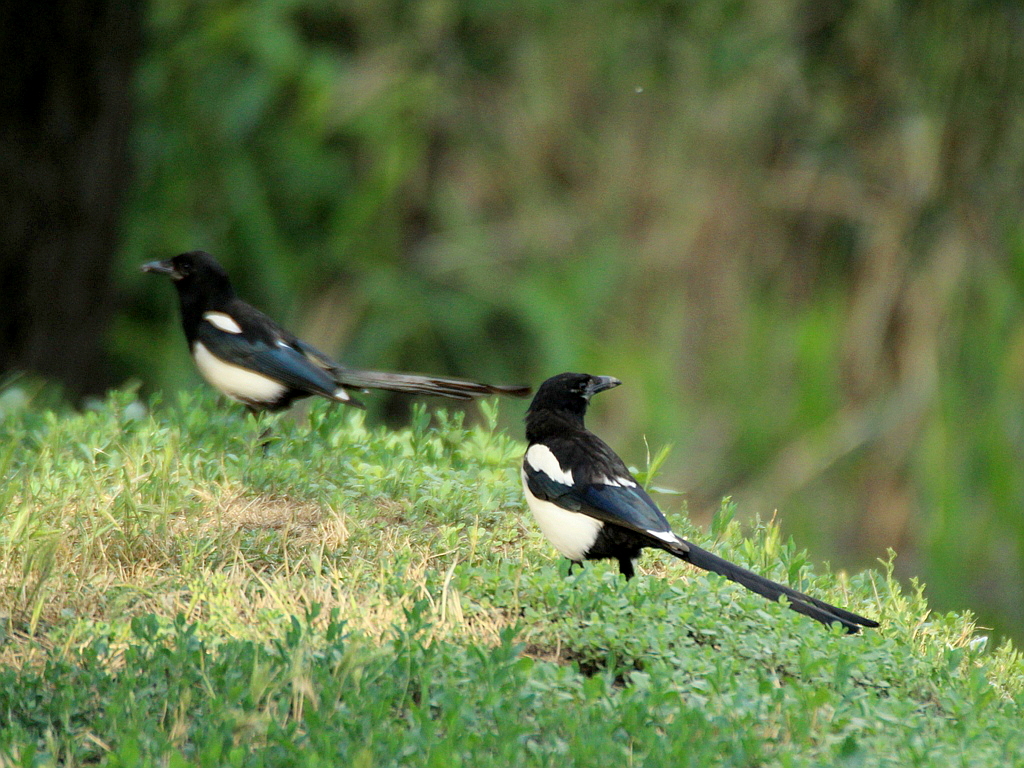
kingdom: Animalia
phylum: Chordata
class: Aves
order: Passeriformes
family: Corvidae
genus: Pica
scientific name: Pica pica
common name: Eurasian magpie
